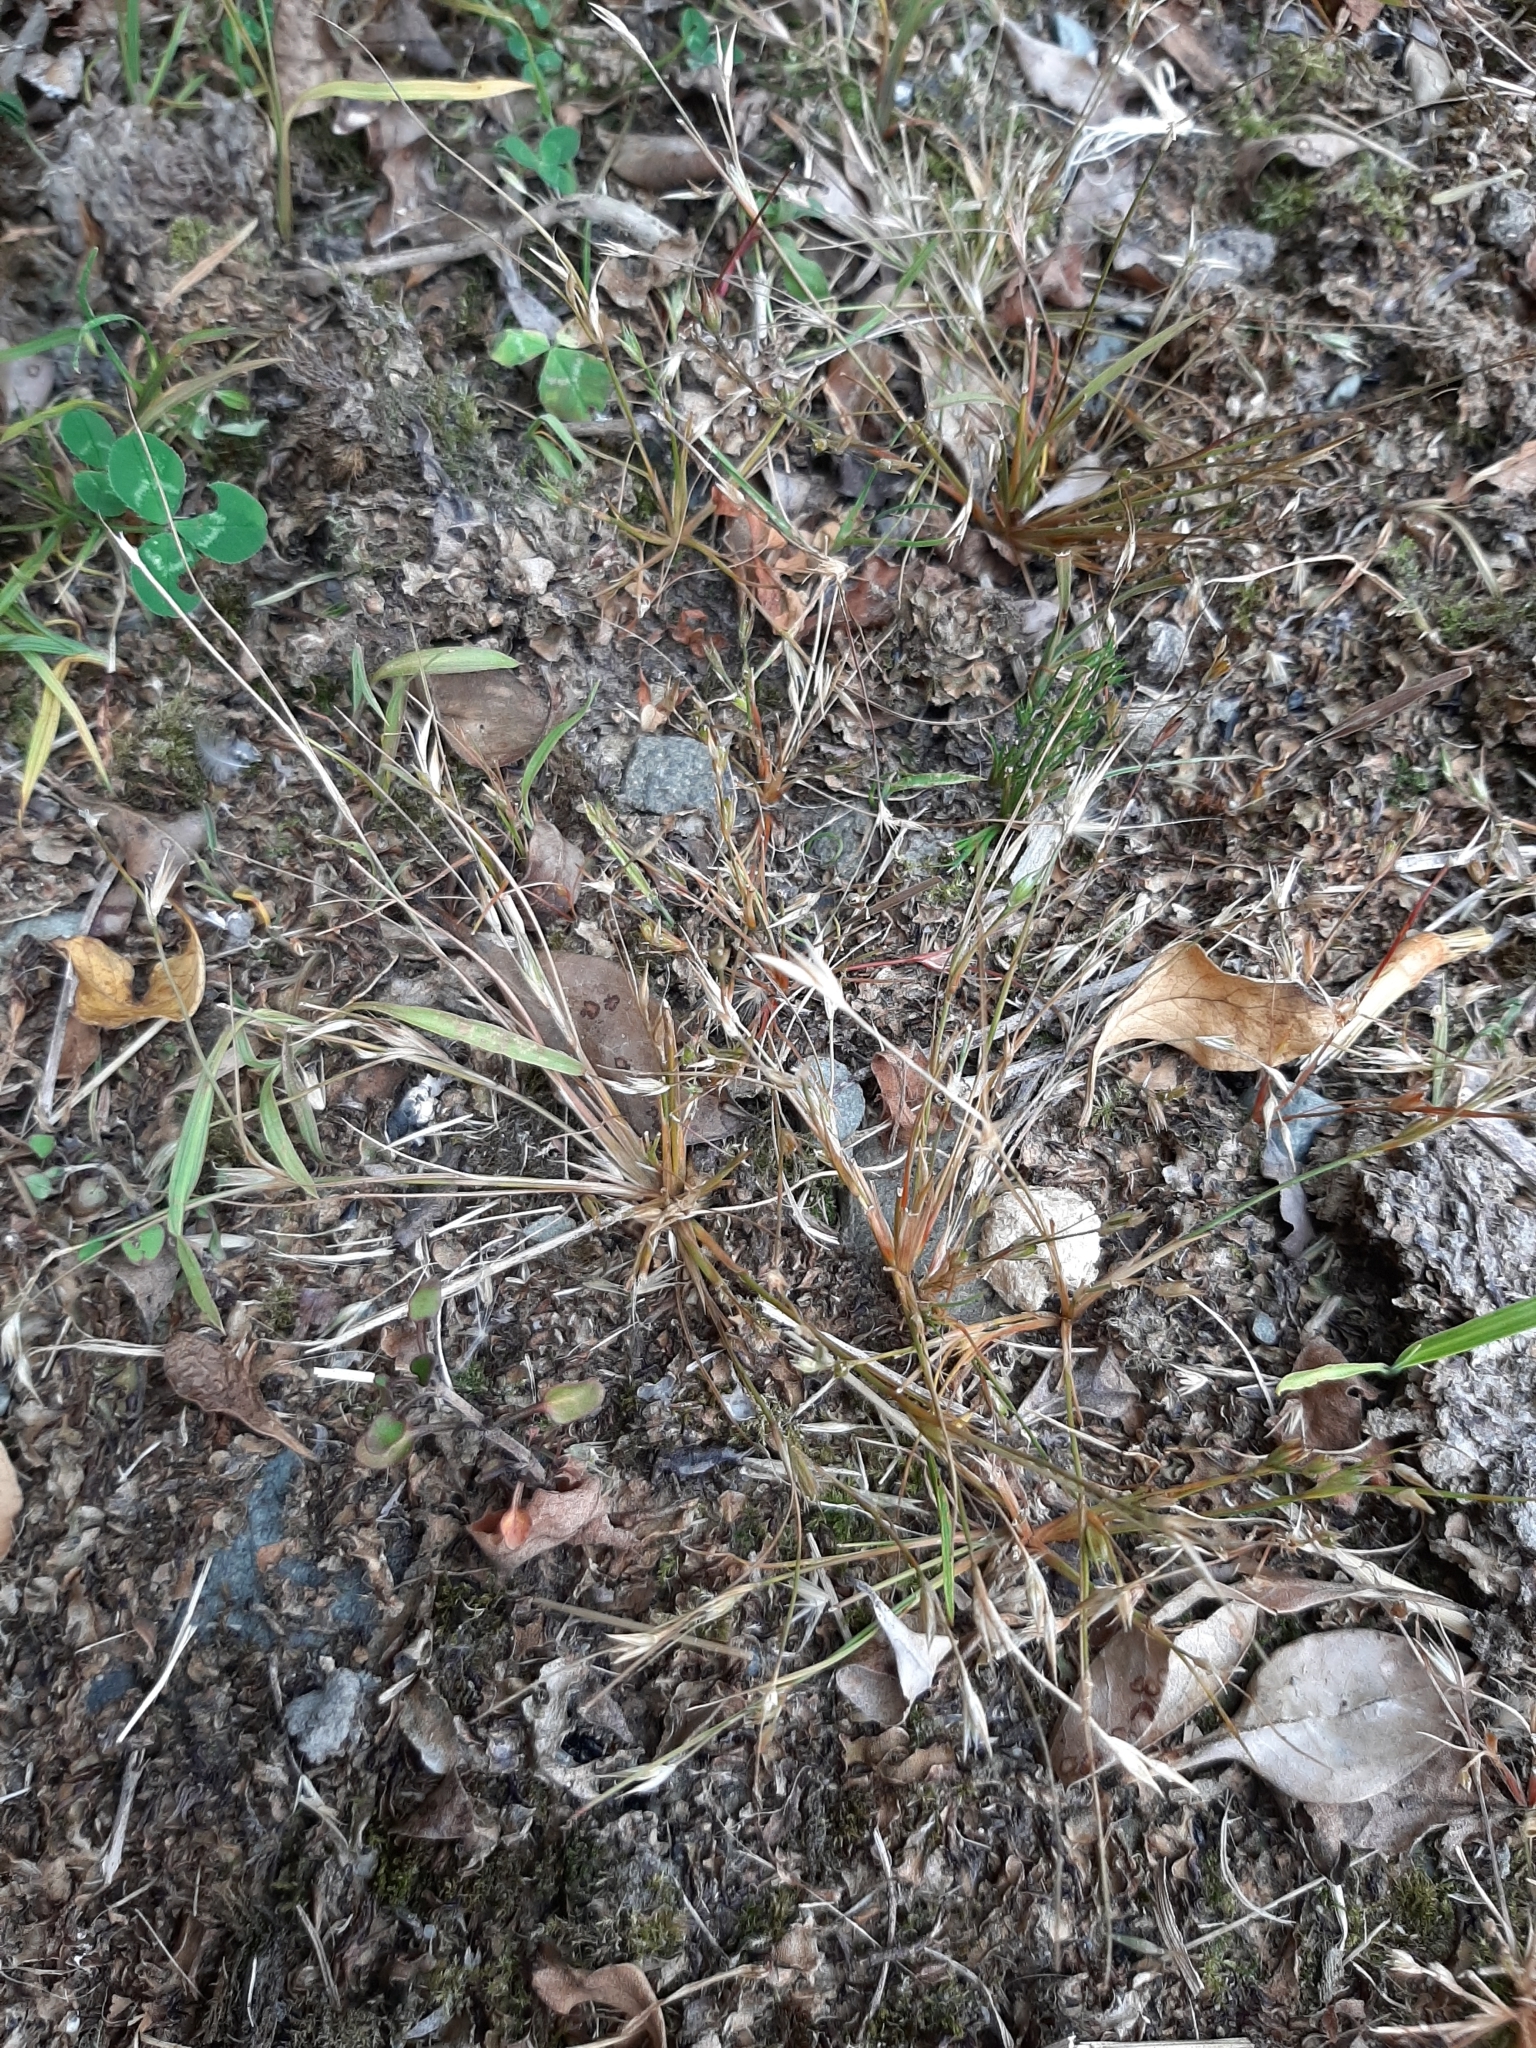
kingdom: Plantae
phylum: Tracheophyta
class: Liliopsida
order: Poales
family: Juncaceae
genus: Juncus
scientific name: Juncus bufonius
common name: Toad rush
